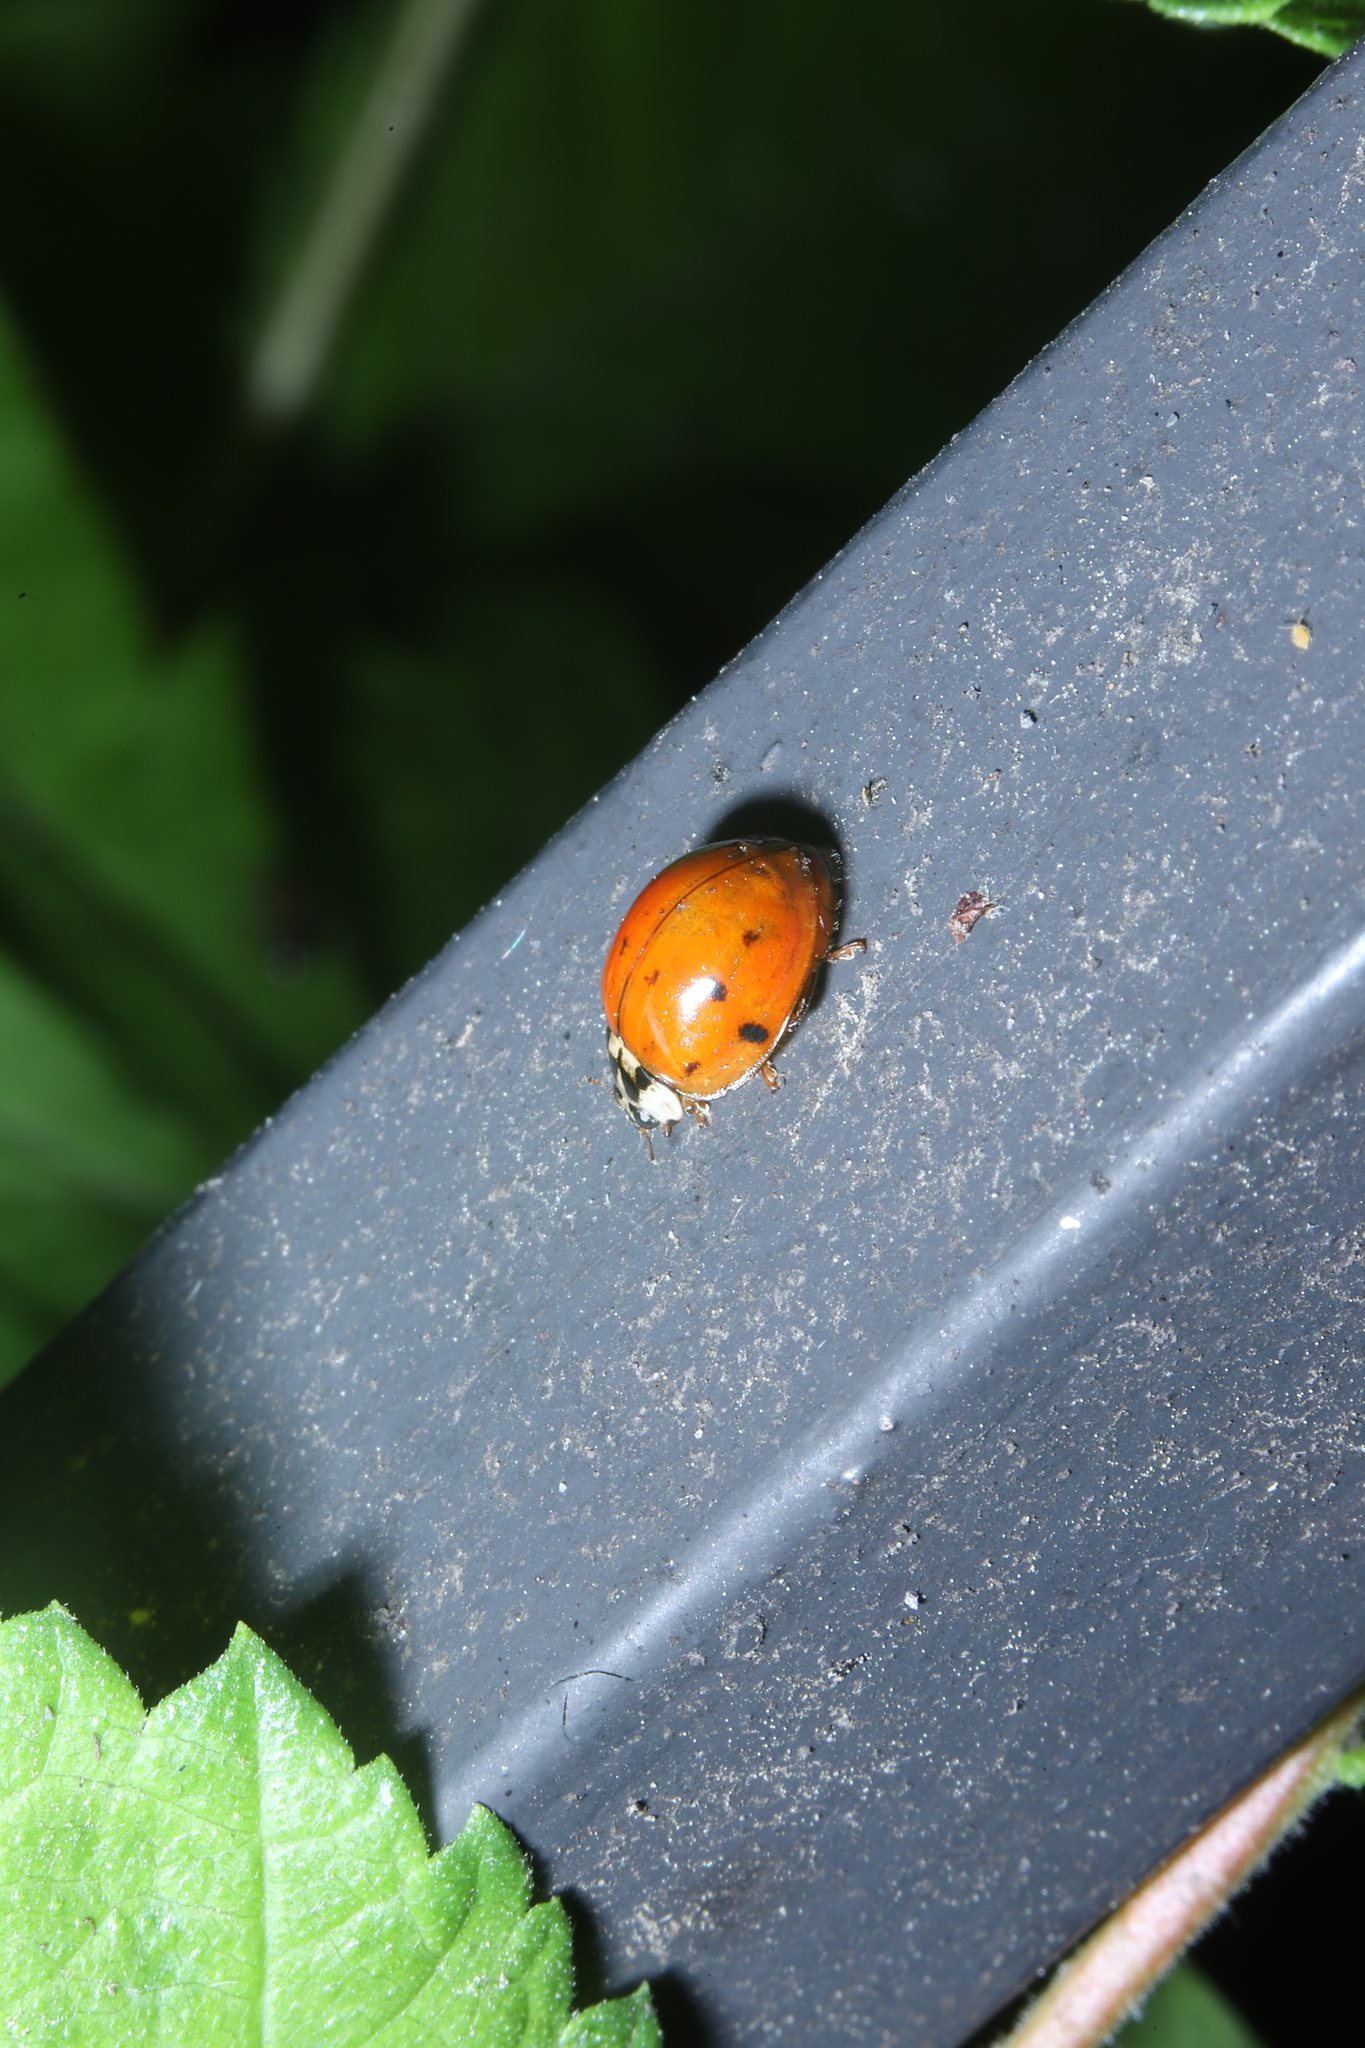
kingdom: Animalia
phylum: Arthropoda
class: Insecta
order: Coleoptera
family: Coccinellidae
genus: Harmonia
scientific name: Harmonia axyridis
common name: Harlequin ladybird
